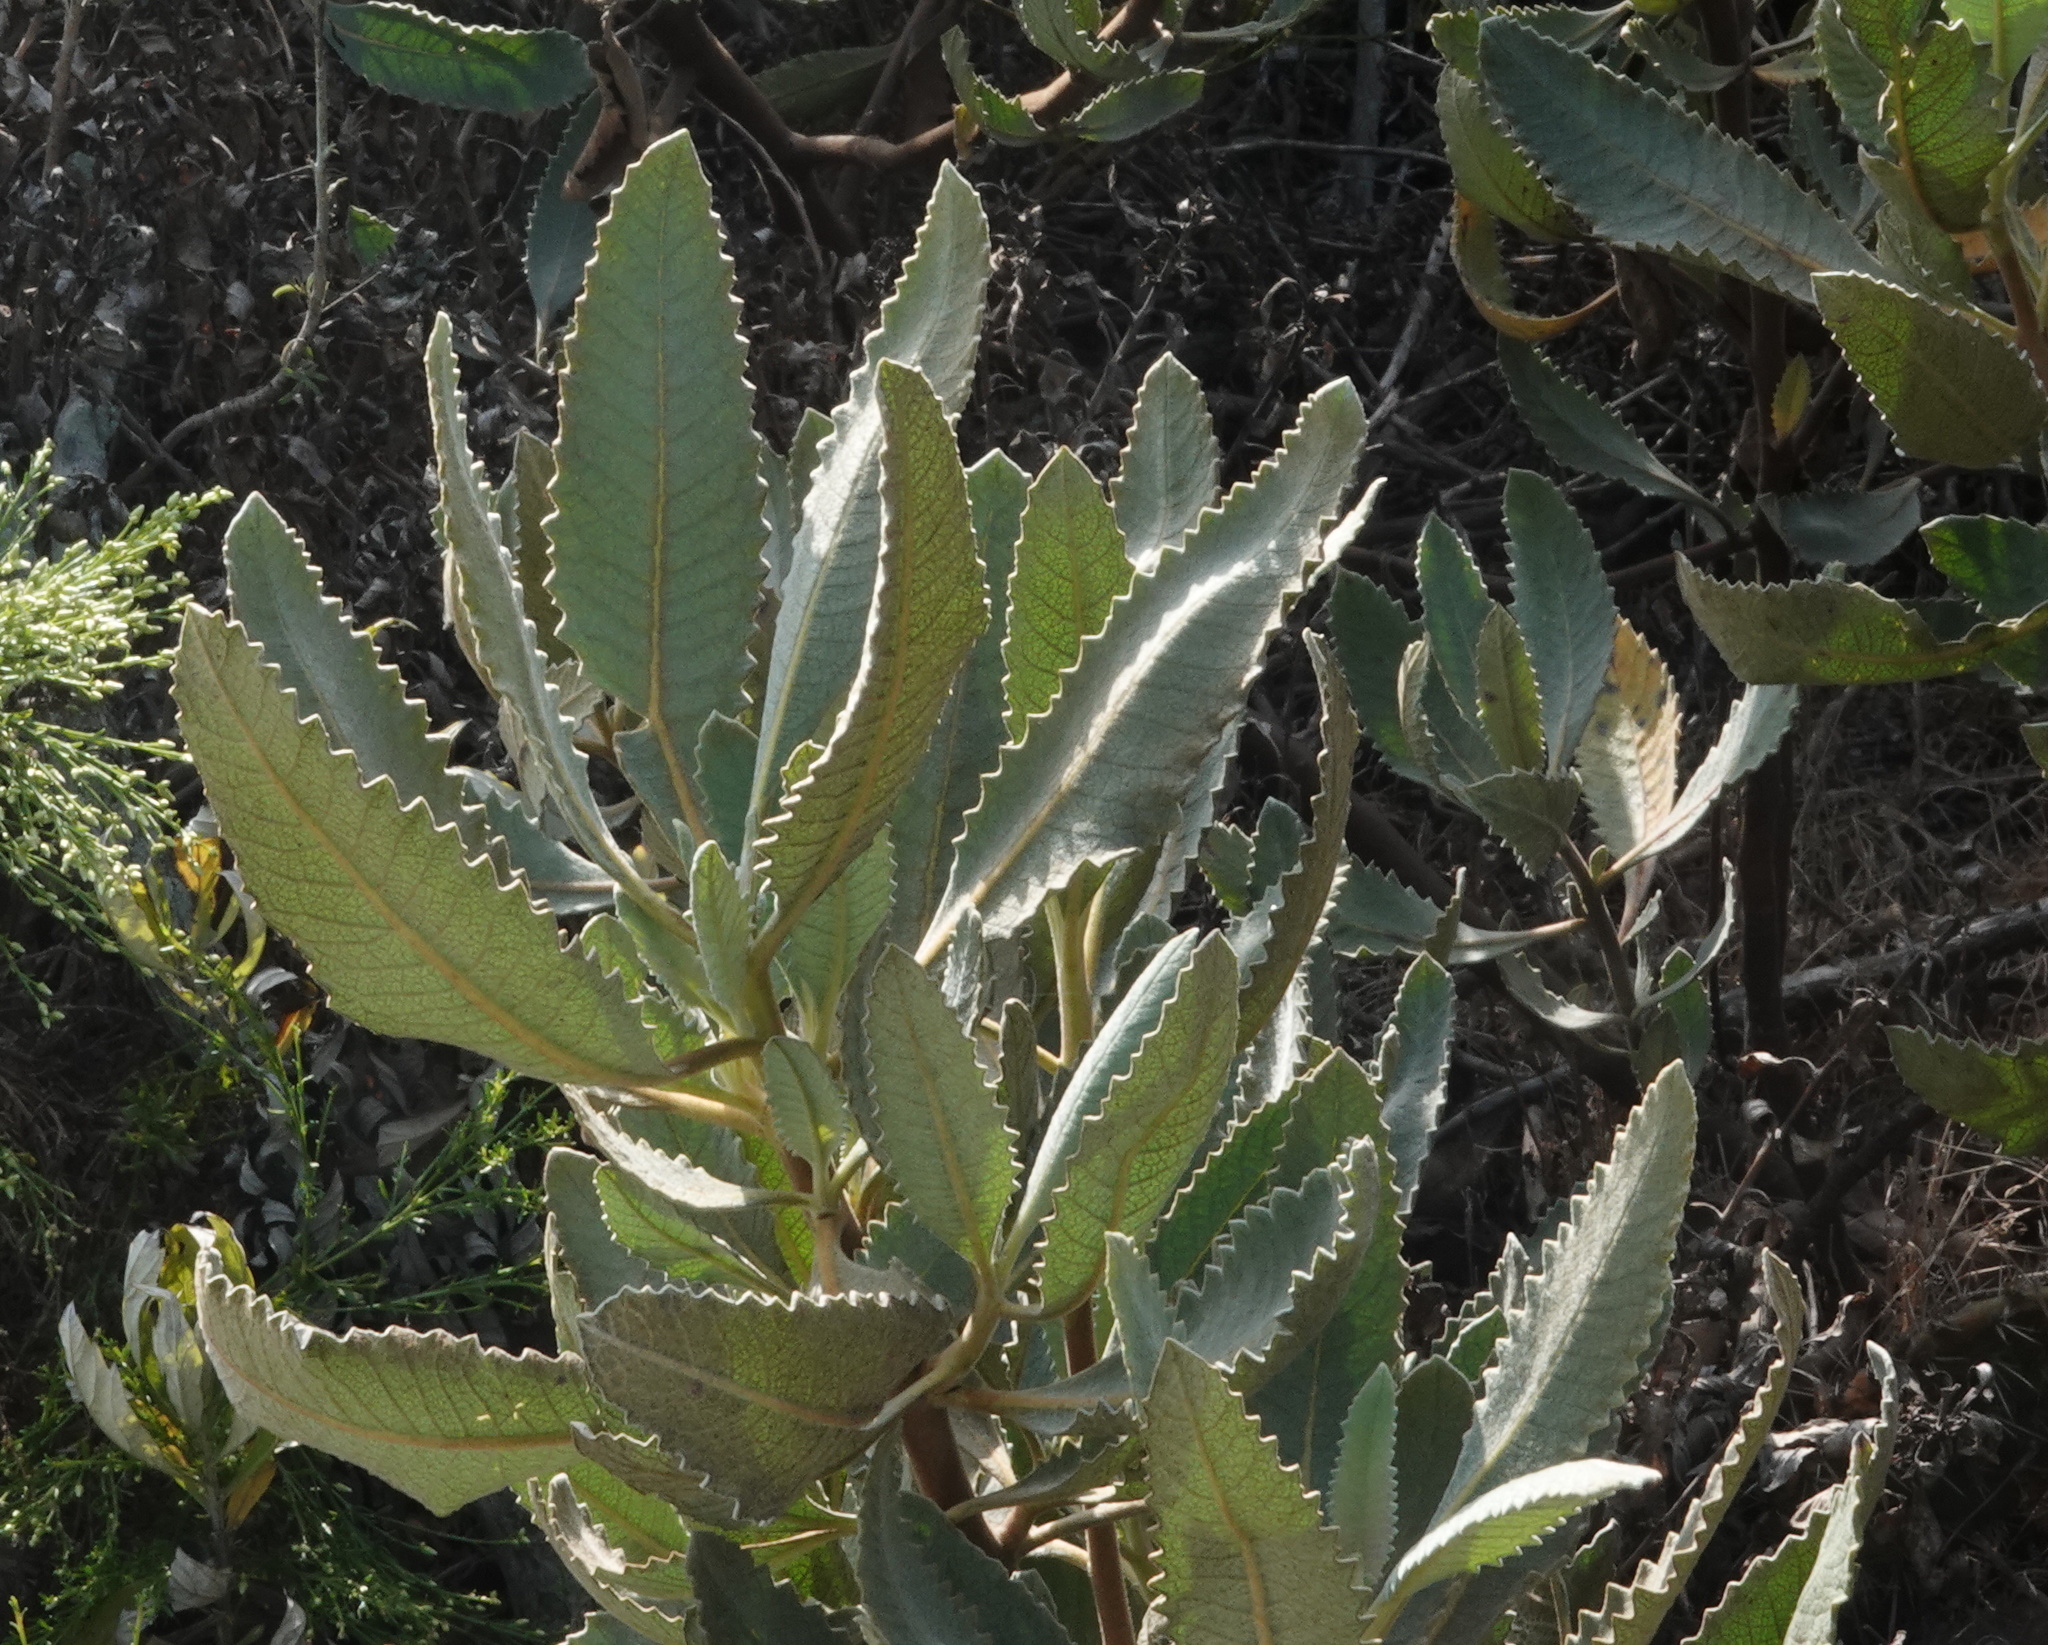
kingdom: Plantae
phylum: Tracheophyta
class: Magnoliopsida
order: Boraginales
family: Namaceae
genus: Eriodictyon
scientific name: Eriodictyon crassifolium
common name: Thick-leaf yerba-santa
